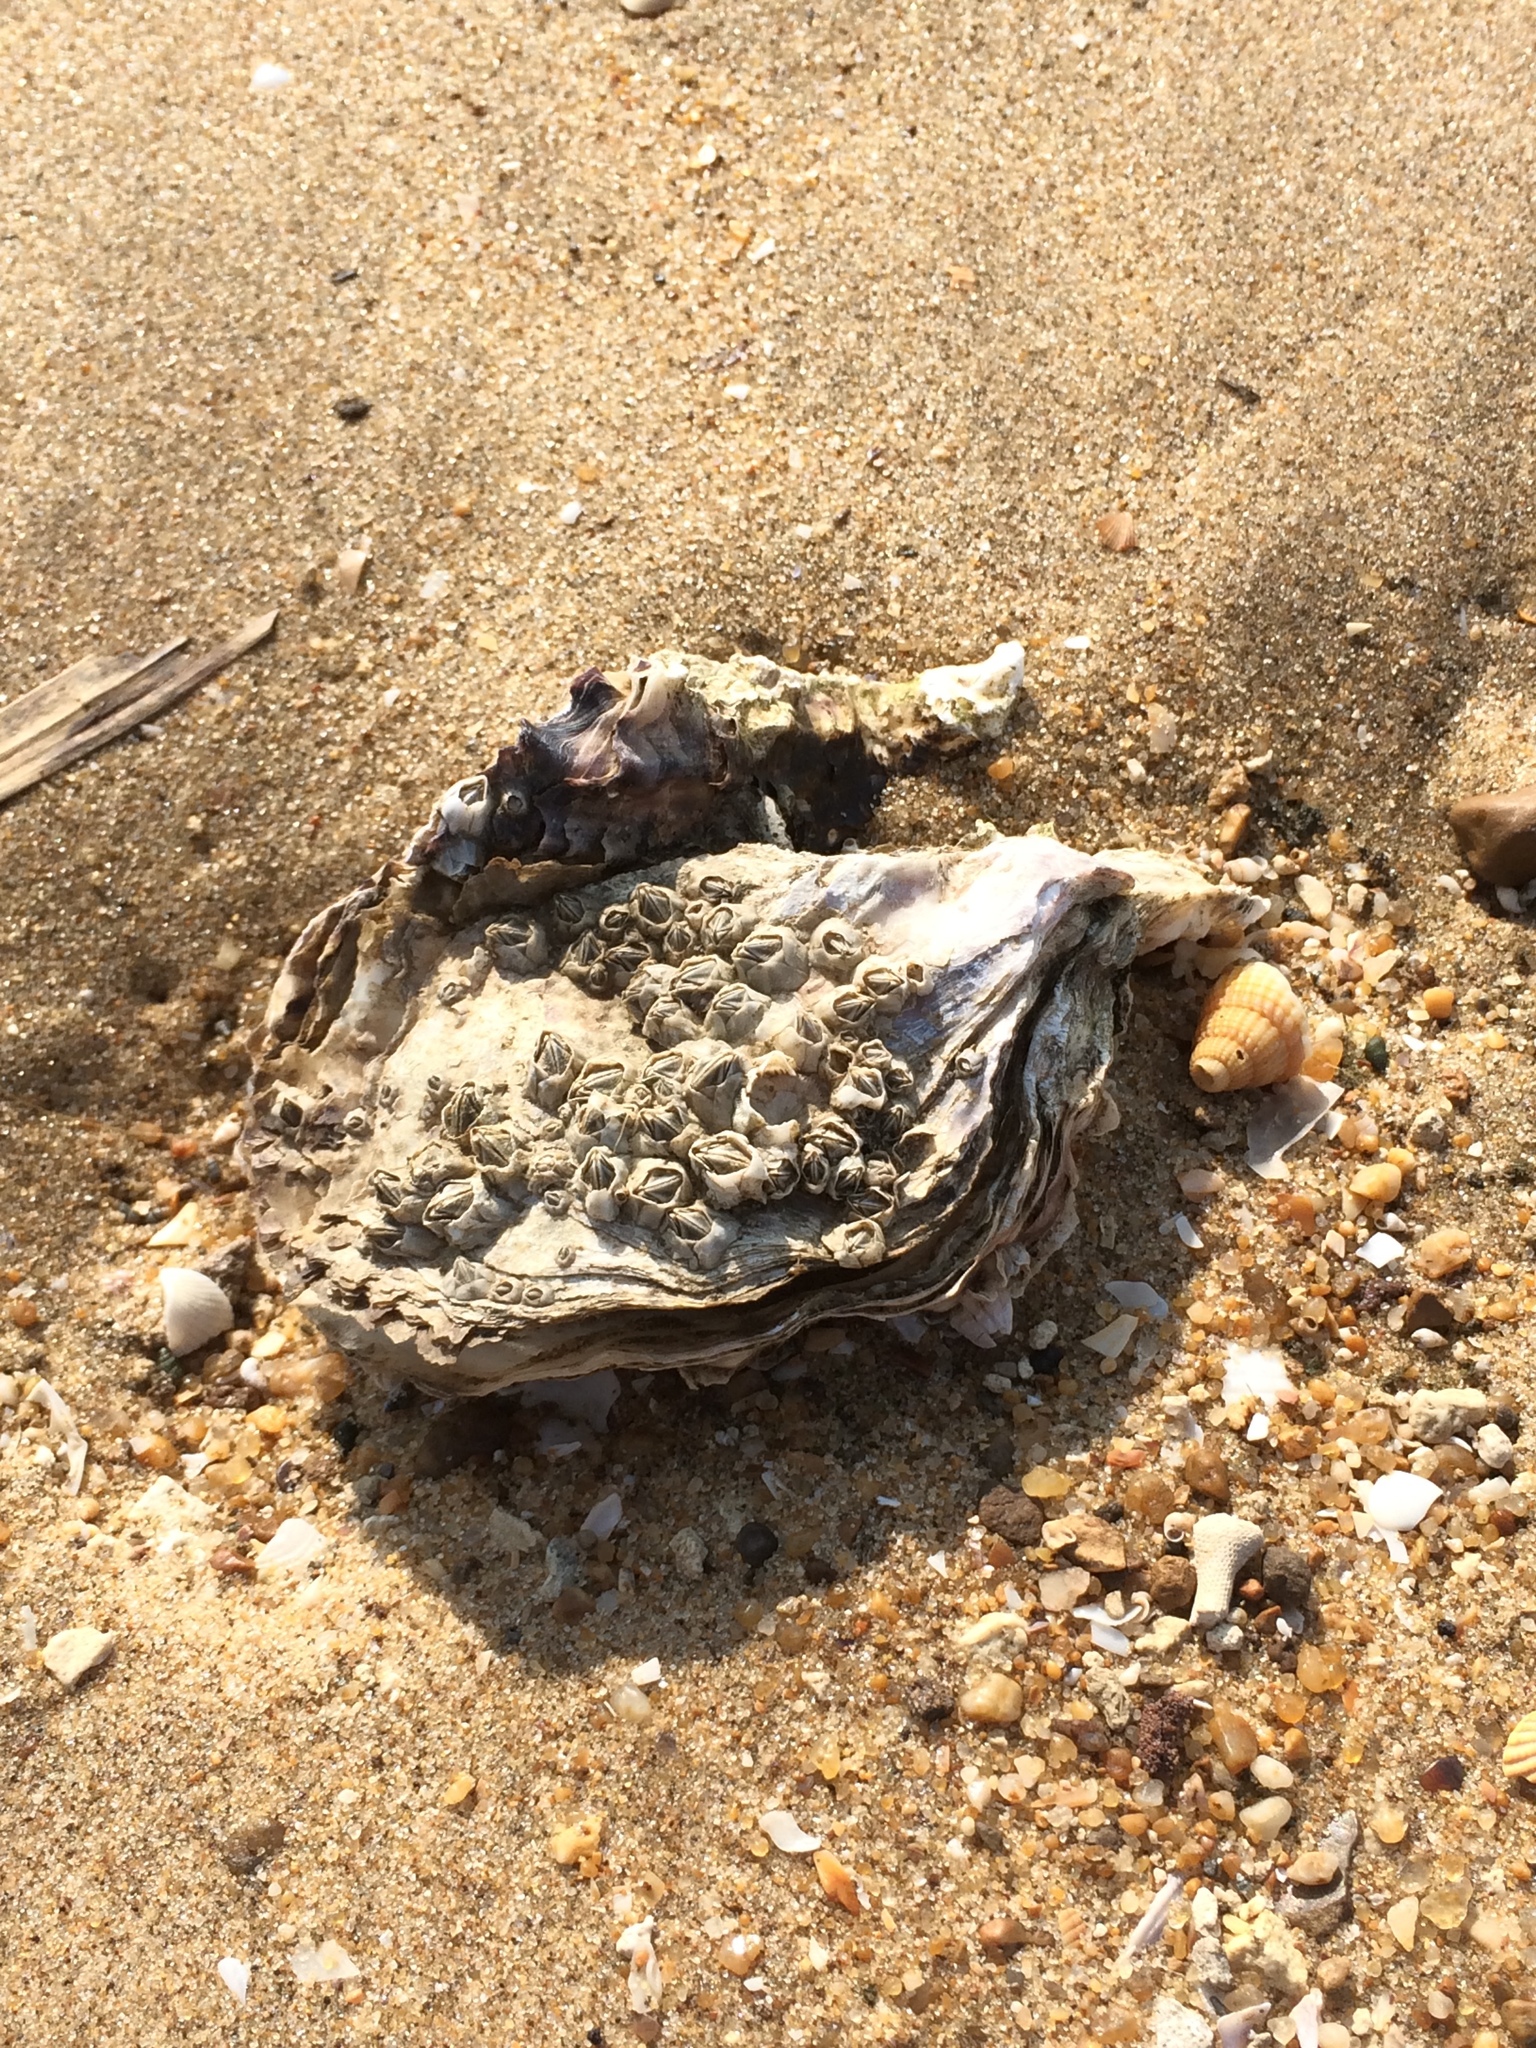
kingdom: Animalia
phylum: Mollusca
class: Bivalvia
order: Ostreida
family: Ostreidae
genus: Magallana
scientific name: Magallana gigas
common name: Pacific oyster
